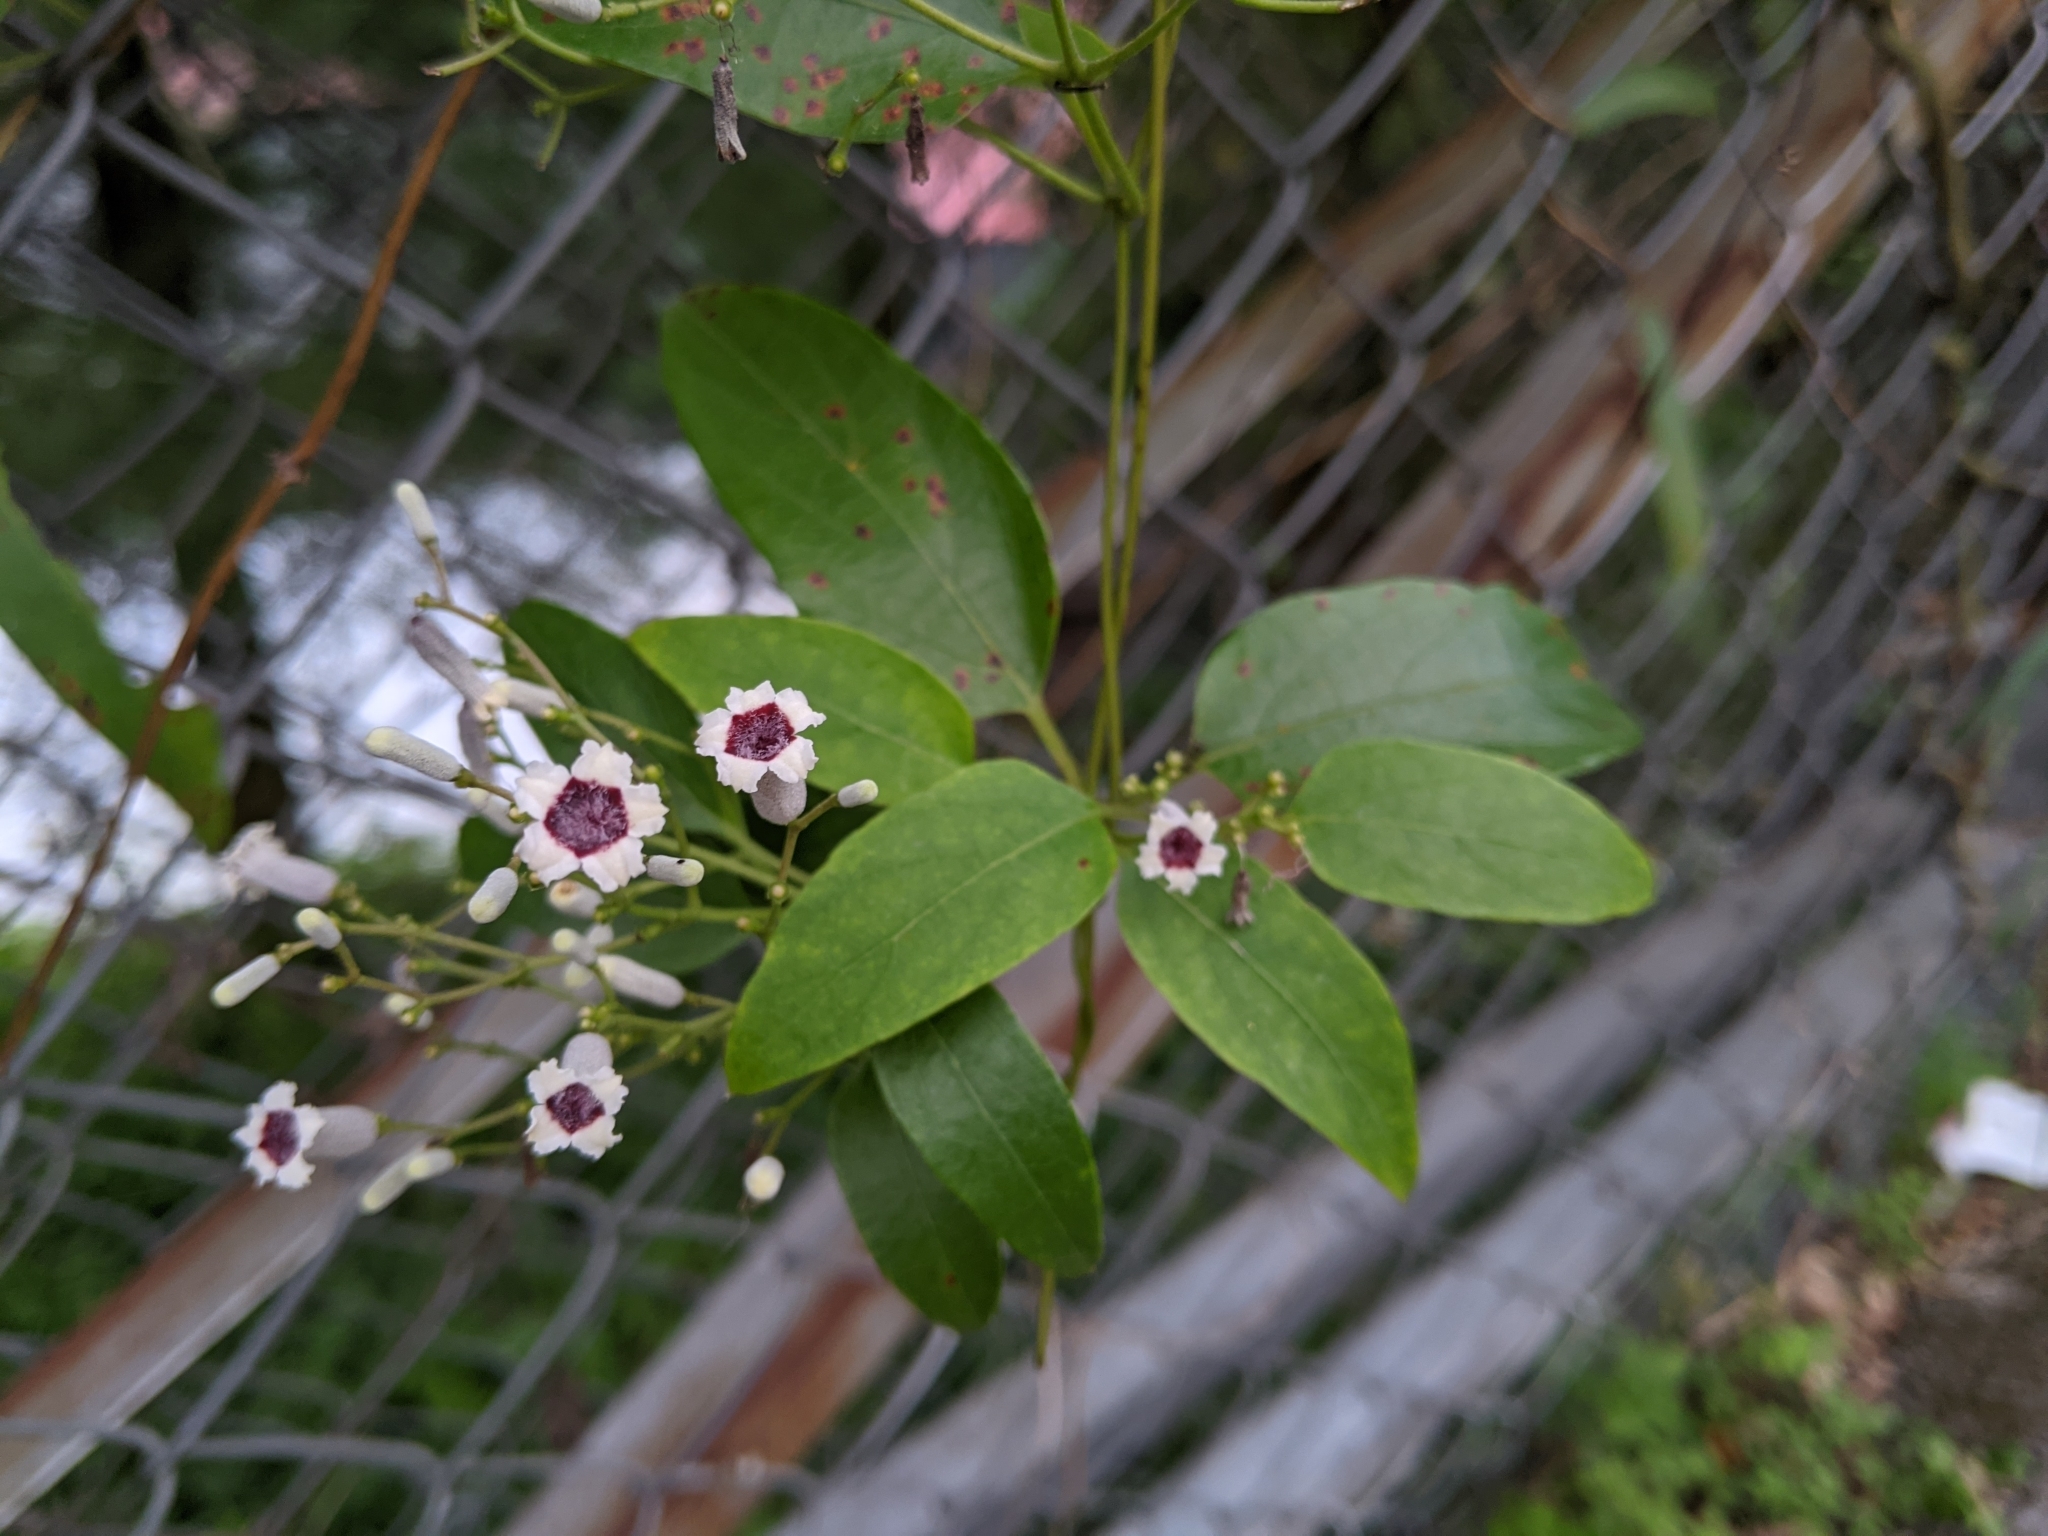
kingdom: Plantae
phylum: Tracheophyta
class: Magnoliopsida
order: Gentianales
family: Rubiaceae
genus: Paederia
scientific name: Paederia foetida
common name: Stinkvine
